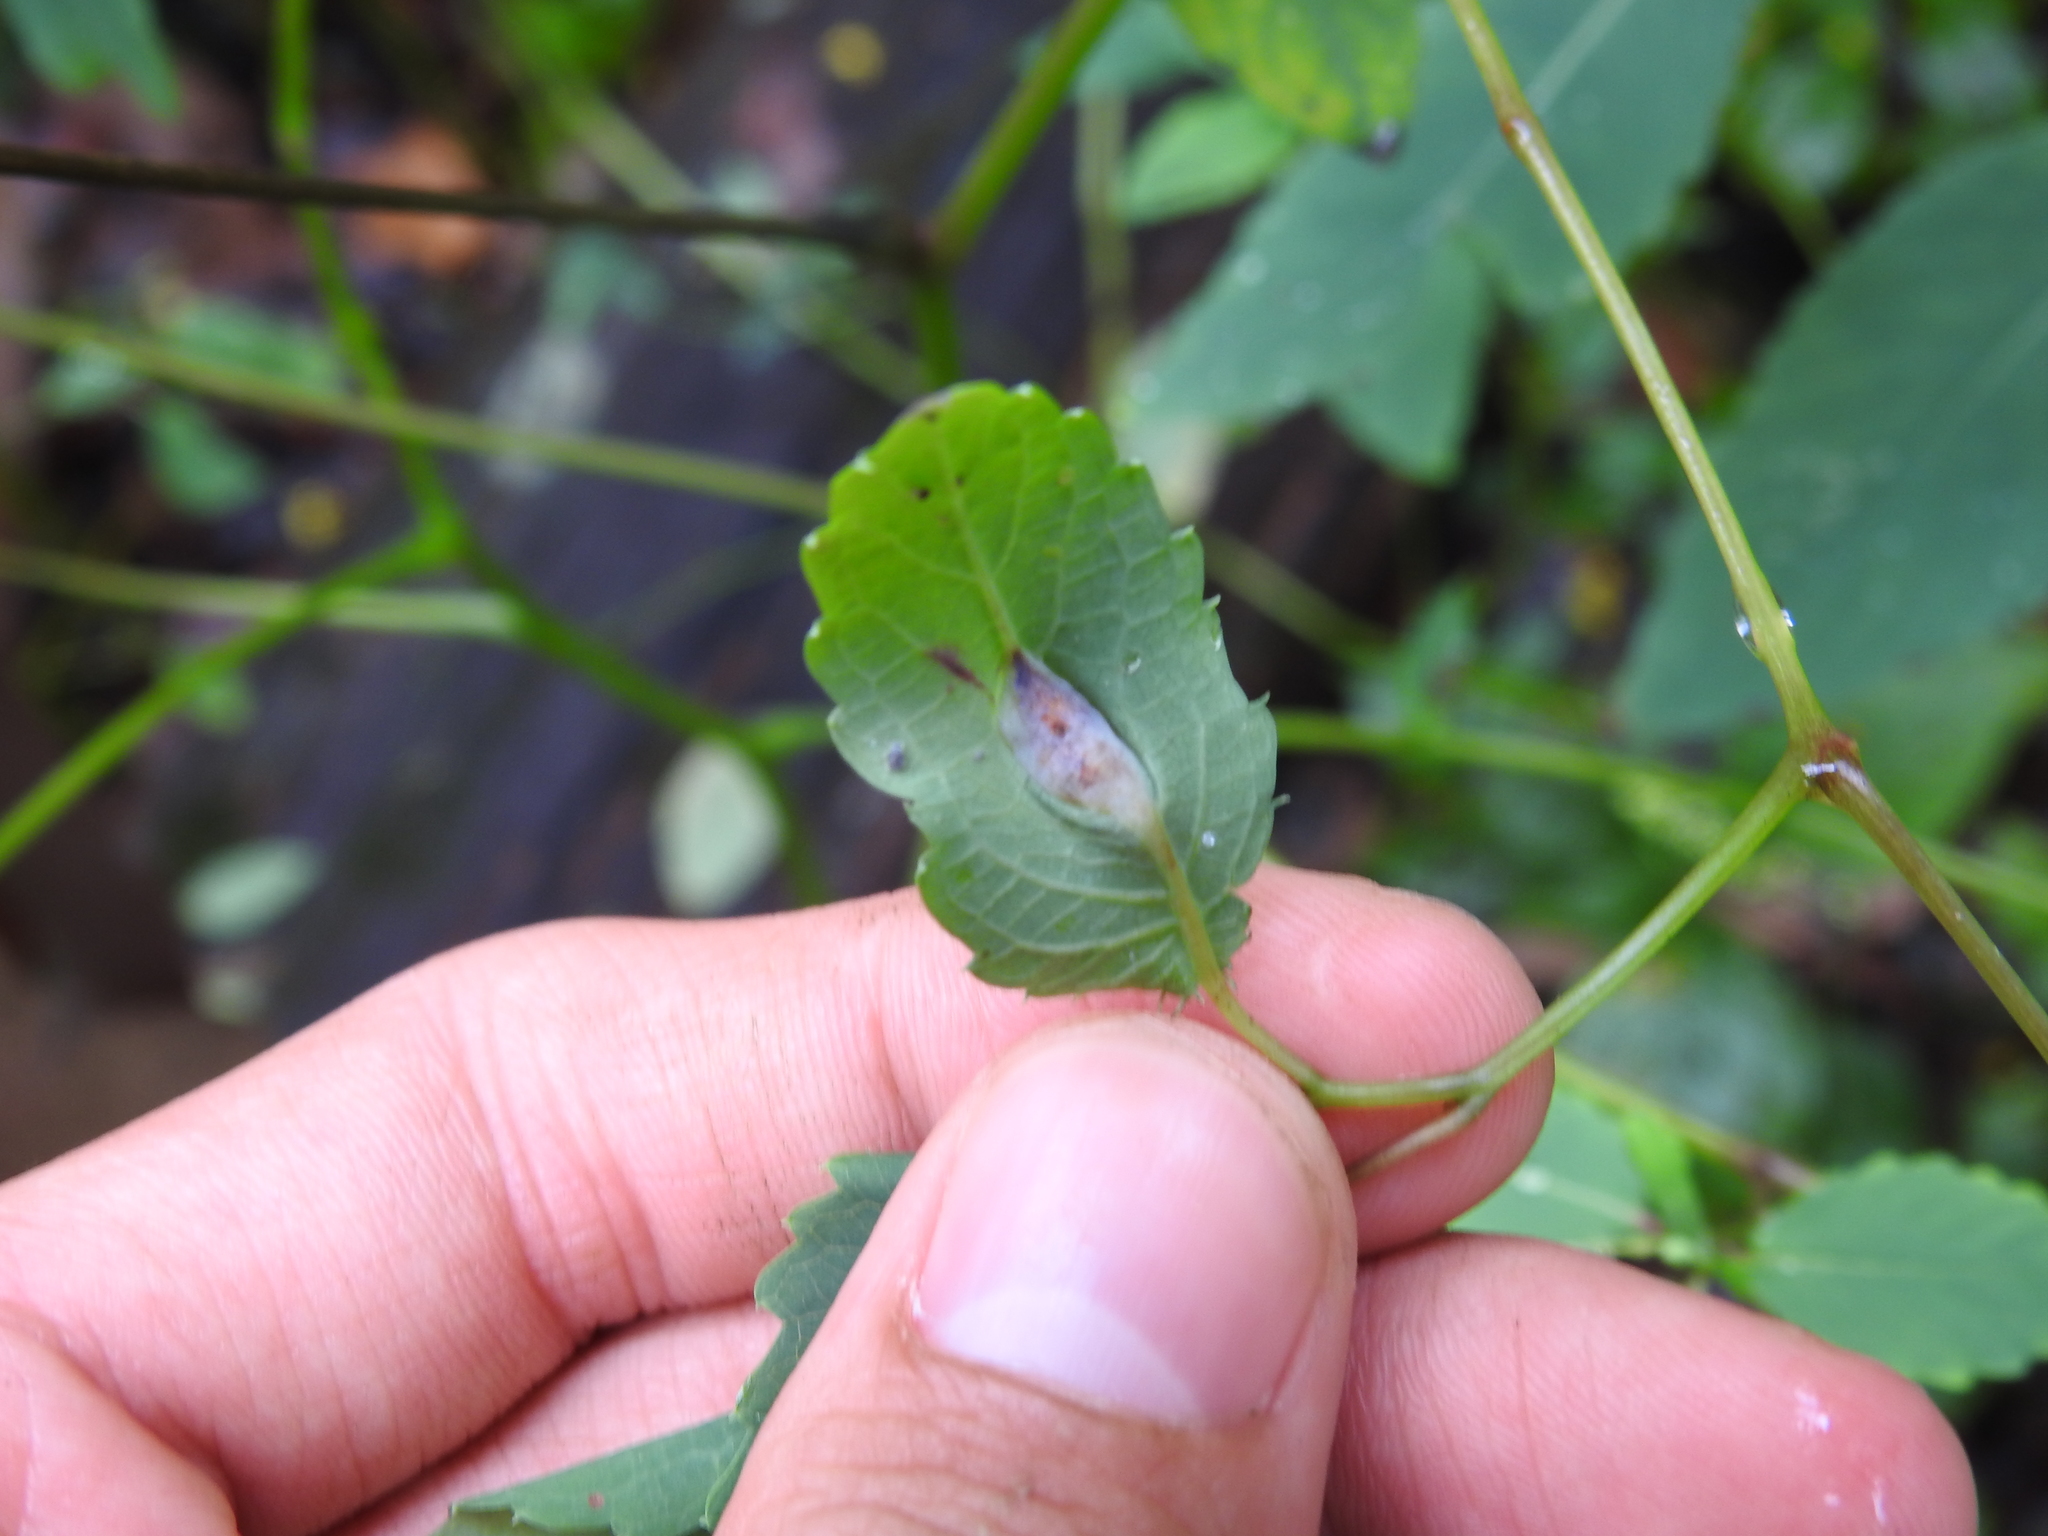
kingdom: Animalia
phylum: Arthropoda
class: Insecta
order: Diptera
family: Cecidomyiidae
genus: Neolasioptera
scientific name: Neolasioptera impatientifolia
